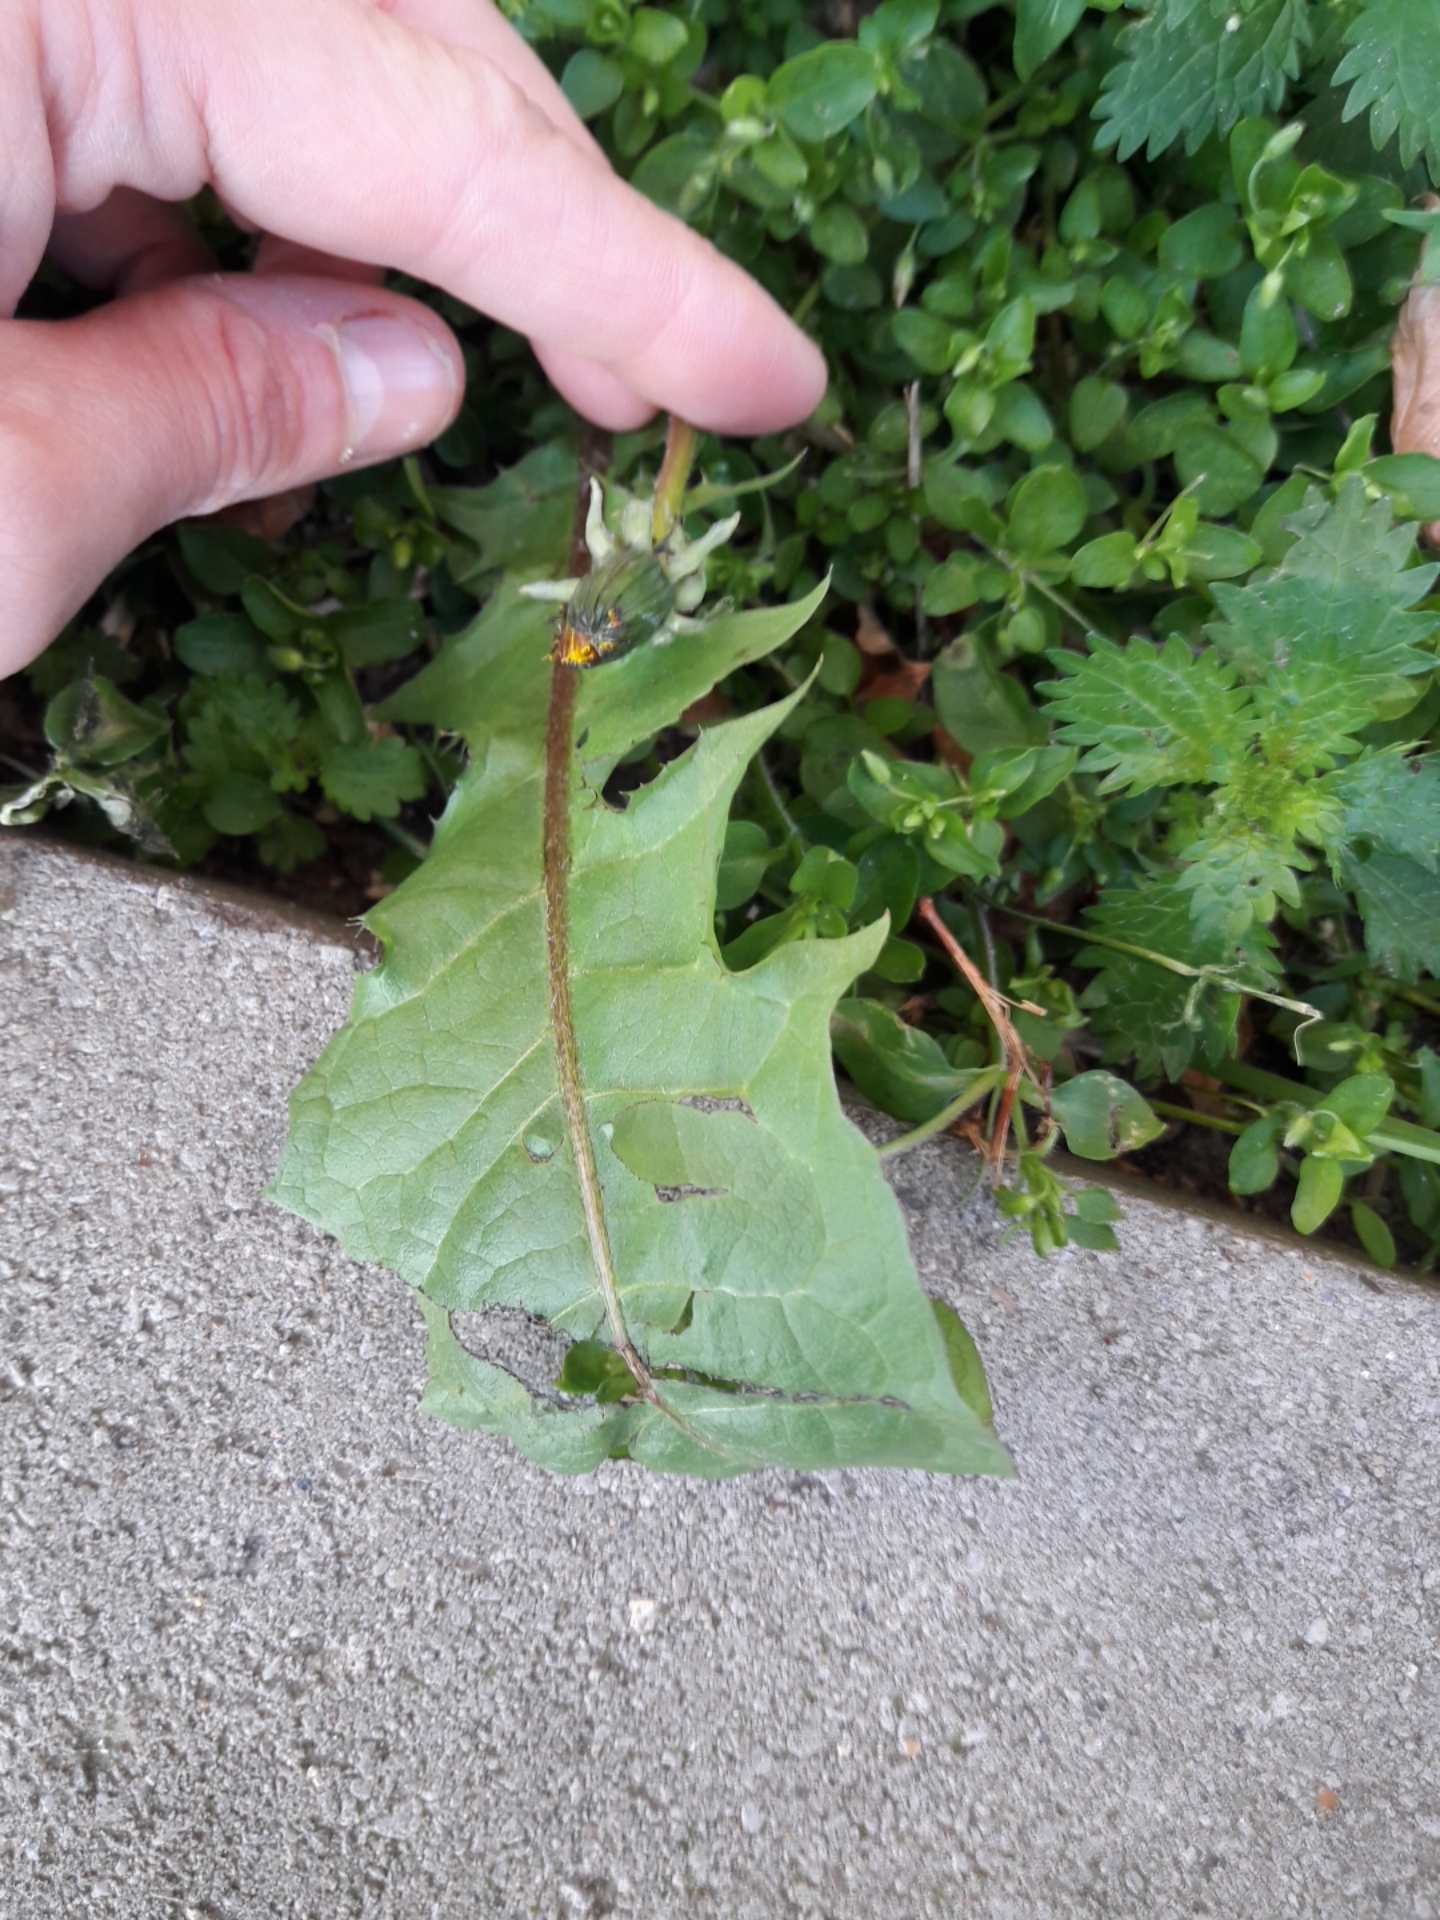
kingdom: Plantae
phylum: Tracheophyta
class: Magnoliopsida
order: Asterales
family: Asteraceae
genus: Taraxacum
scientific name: Taraxacum officinale
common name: Common dandelion
